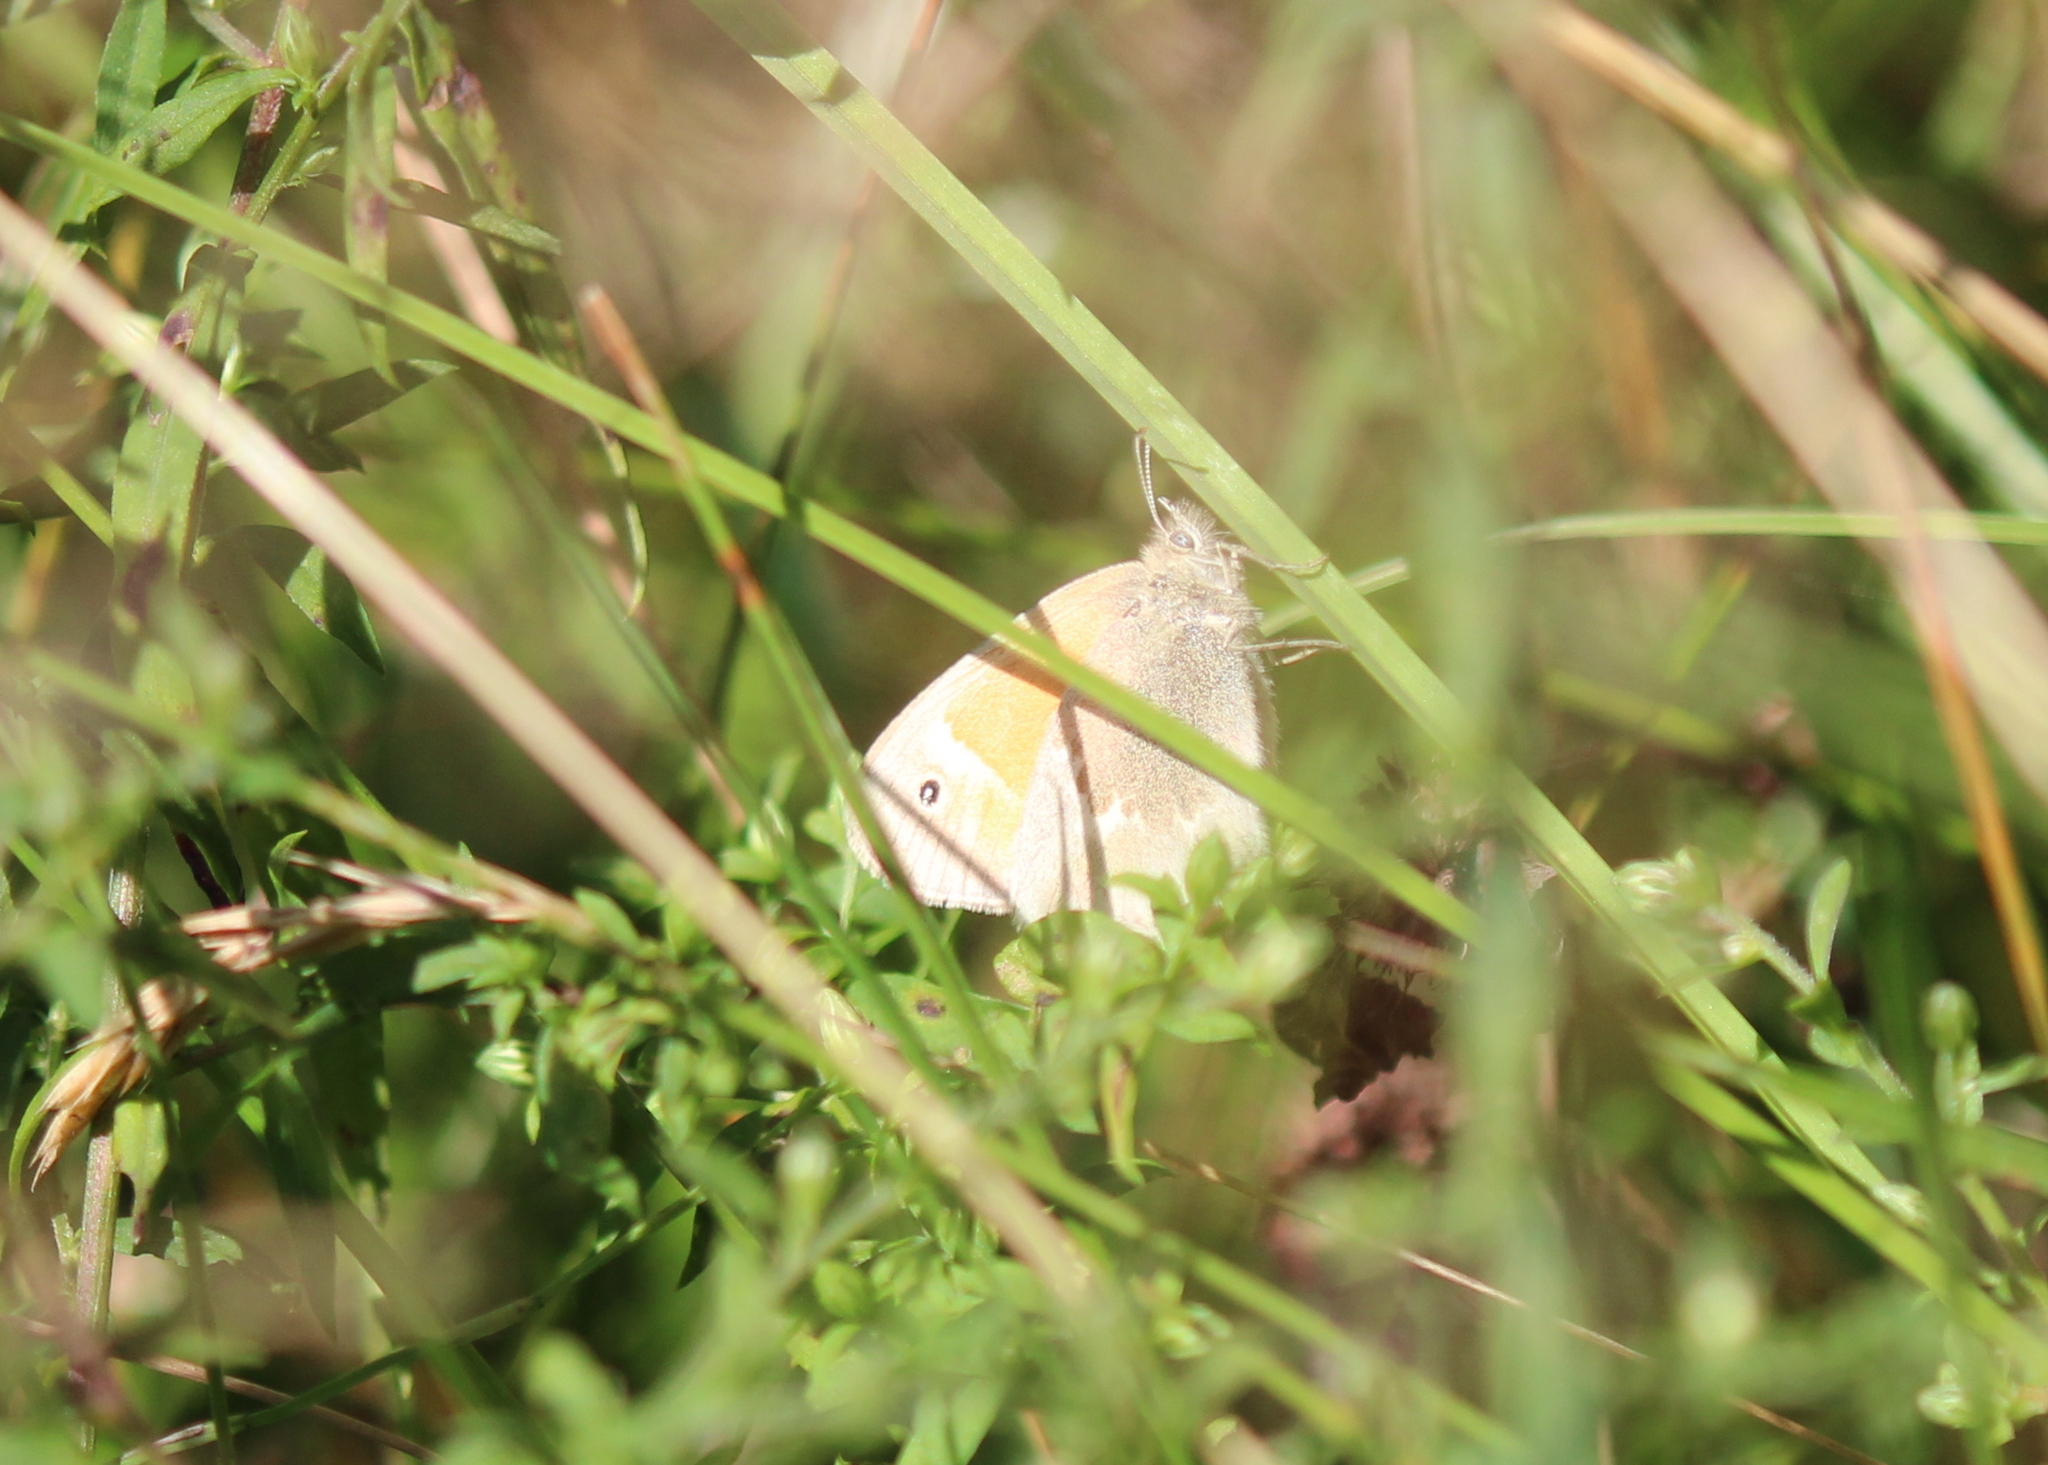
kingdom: Animalia
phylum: Arthropoda
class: Insecta
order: Lepidoptera
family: Nymphalidae
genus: Coenonympha
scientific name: Coenonympha california
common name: Common ringlet
